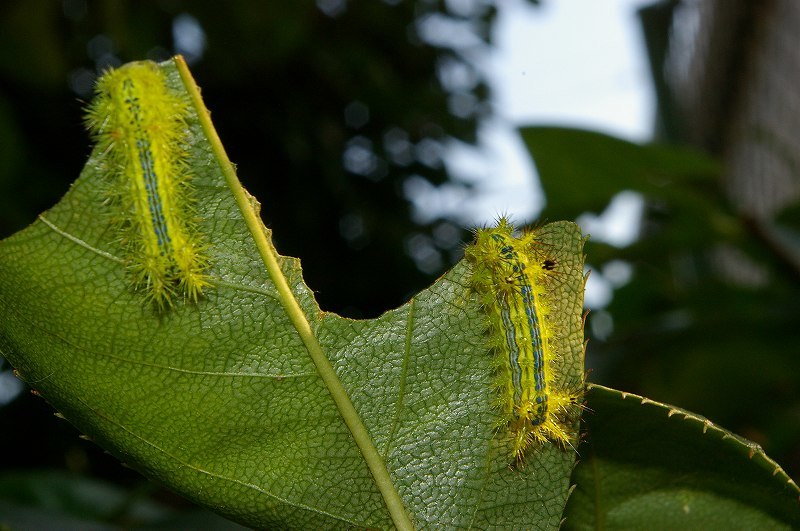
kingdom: Animalia
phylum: Arthropoda
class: Insecta
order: Lepidoptera
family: Limacodidae
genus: Parasa
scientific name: Parasa lepida
